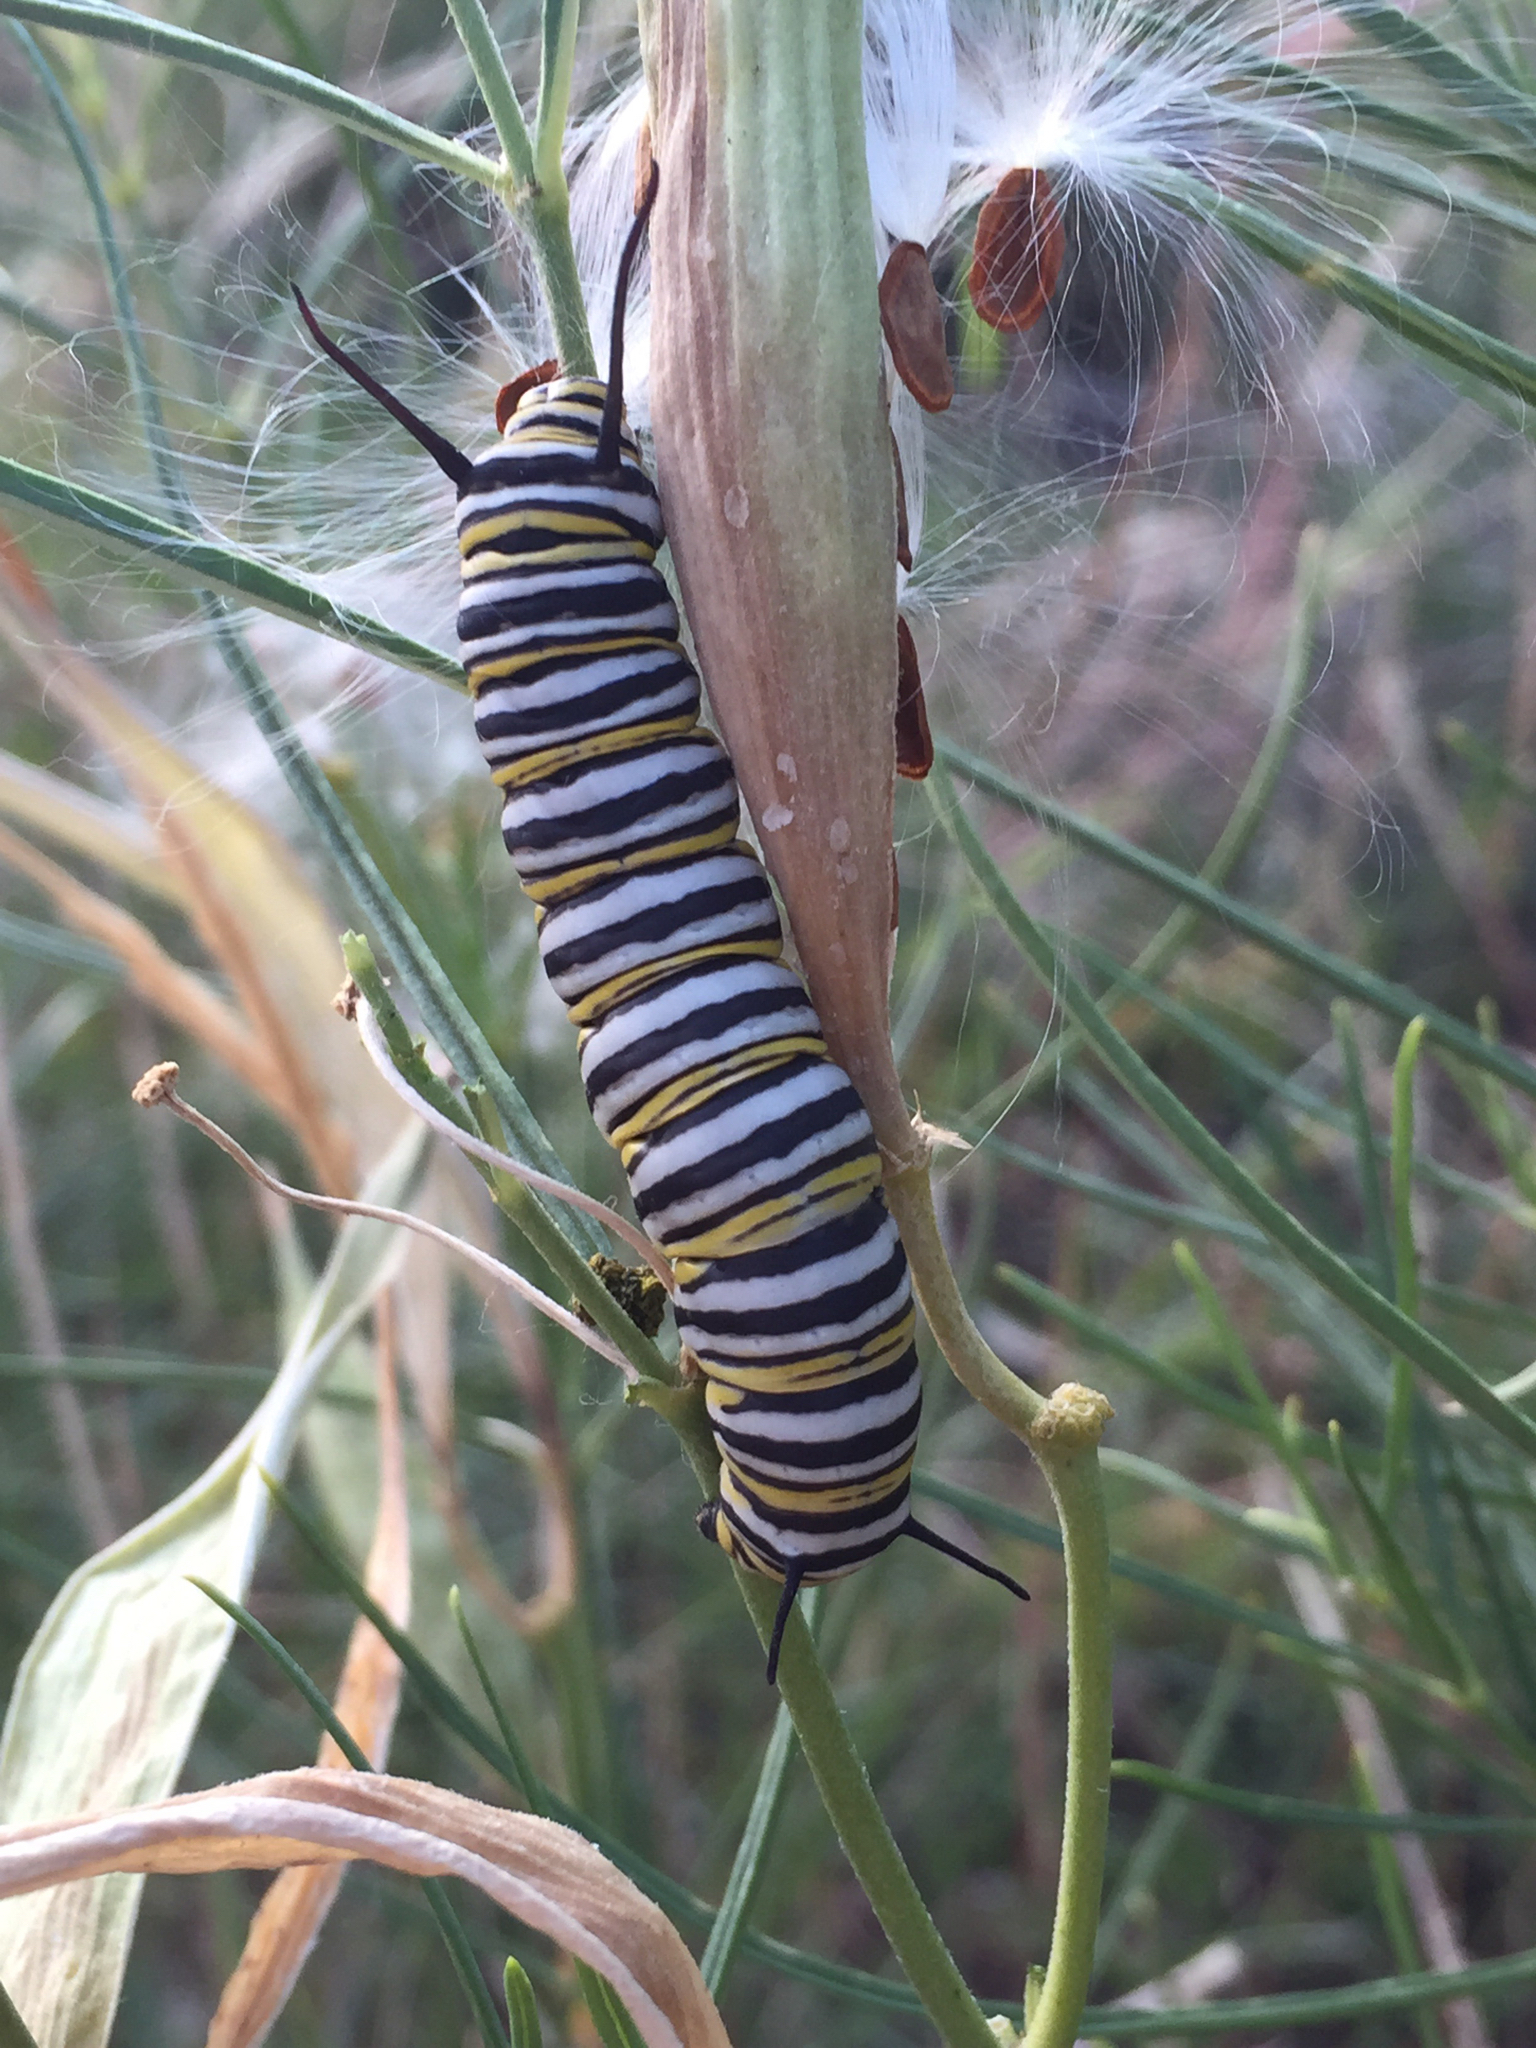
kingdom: Animalia
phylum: Arthropoda
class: Insecta
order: Lepidoptera
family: Nymphalidae
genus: Danaus
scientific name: Danaus plexippus
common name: Monarch
